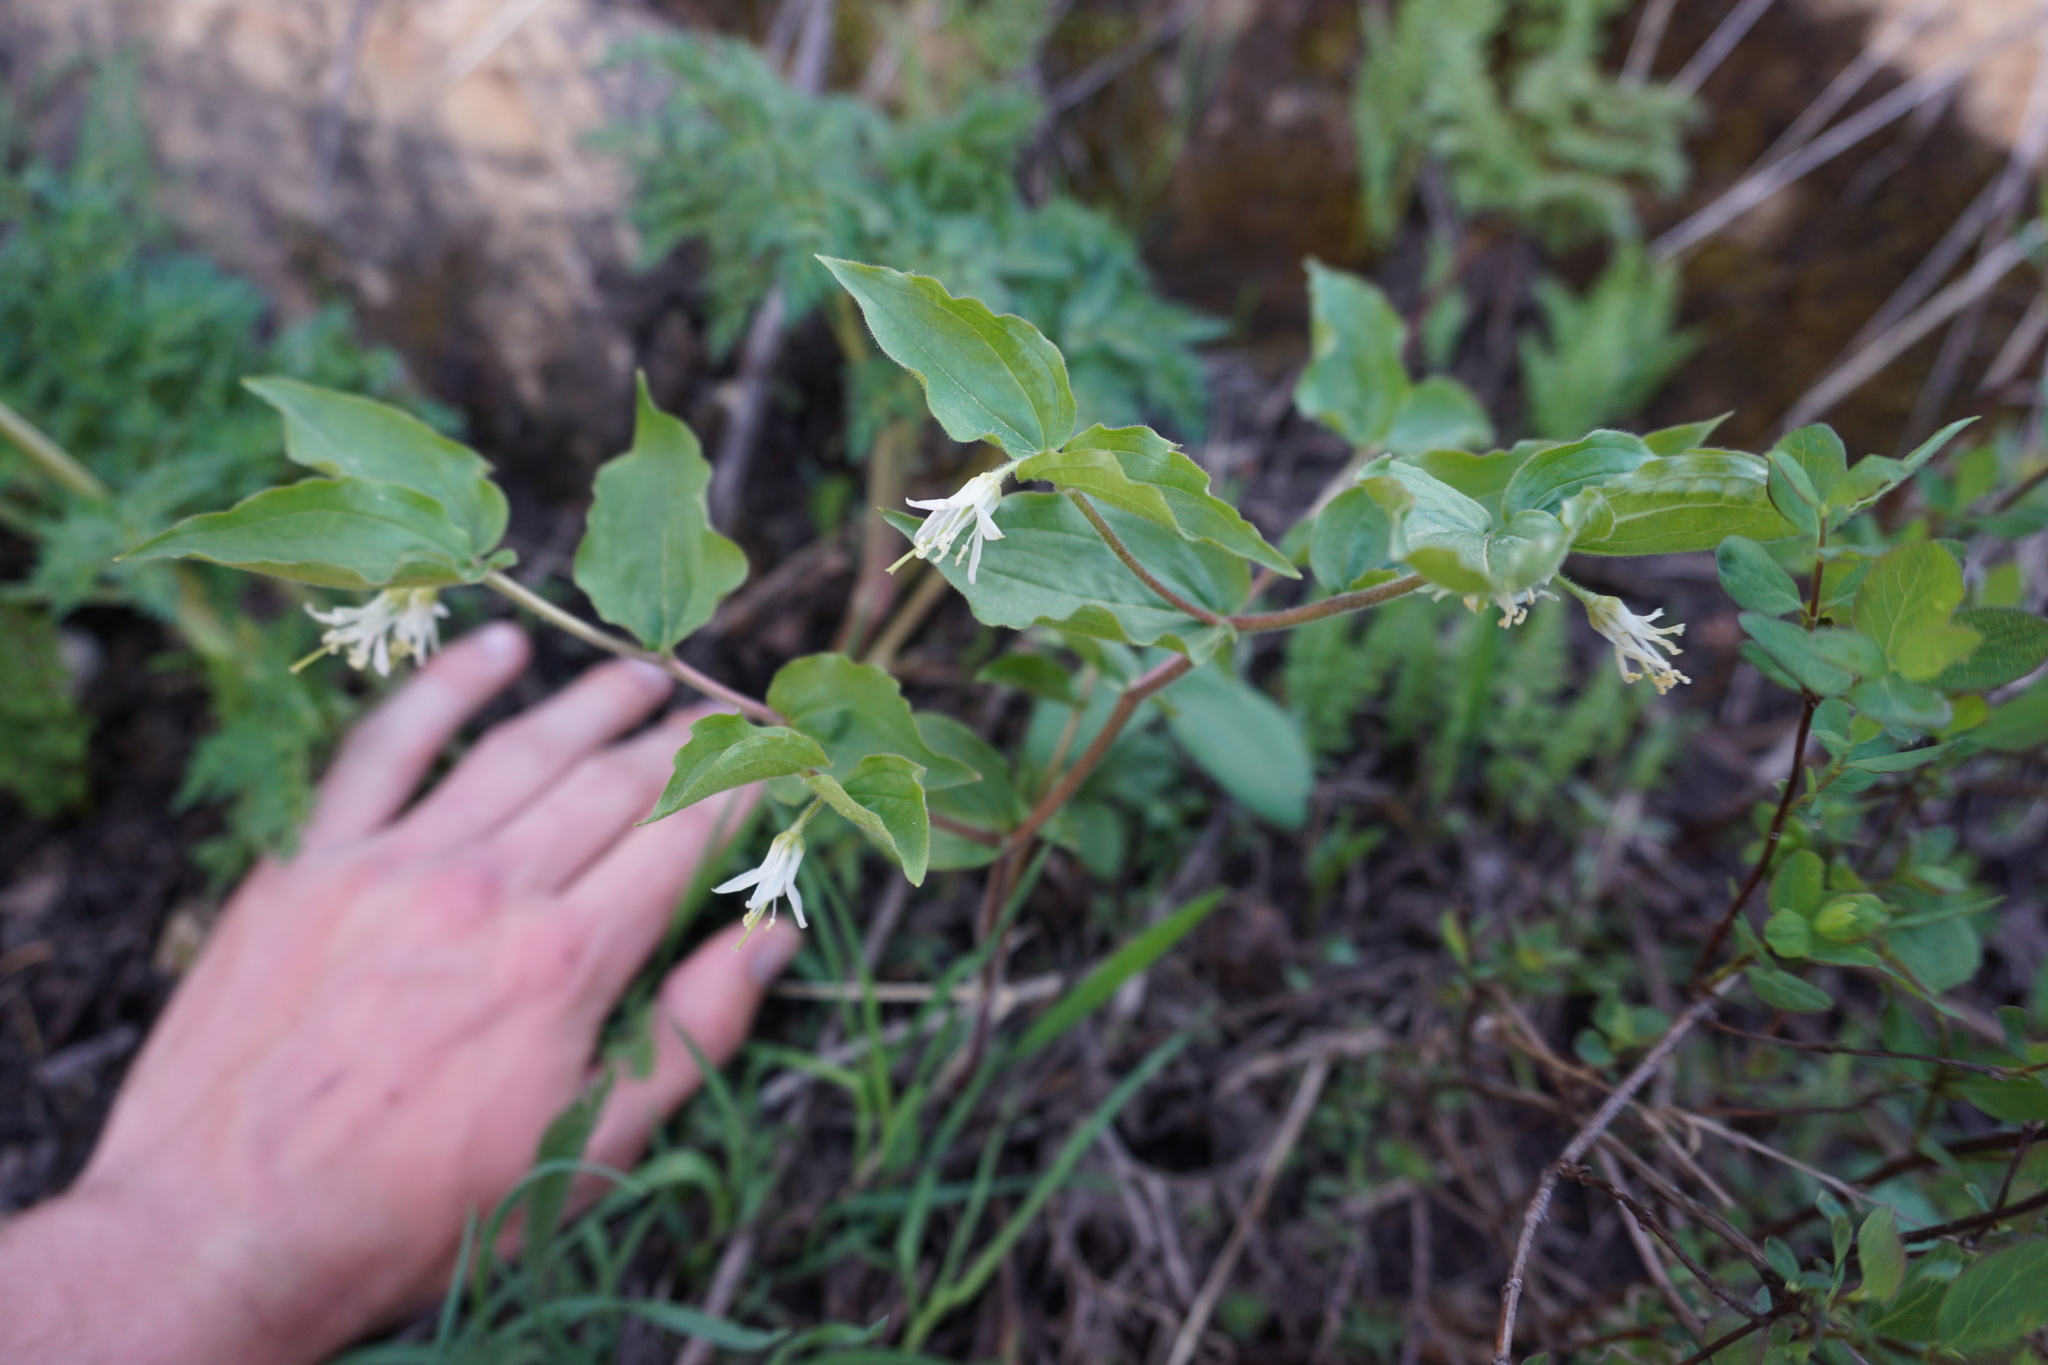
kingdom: Plantae
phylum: Tracheophyta
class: Liliopsida
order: Liliales
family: Liliaceae
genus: Prosartes
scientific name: Prosartes trachycarpa
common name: Rough-fruit fairy-bells
